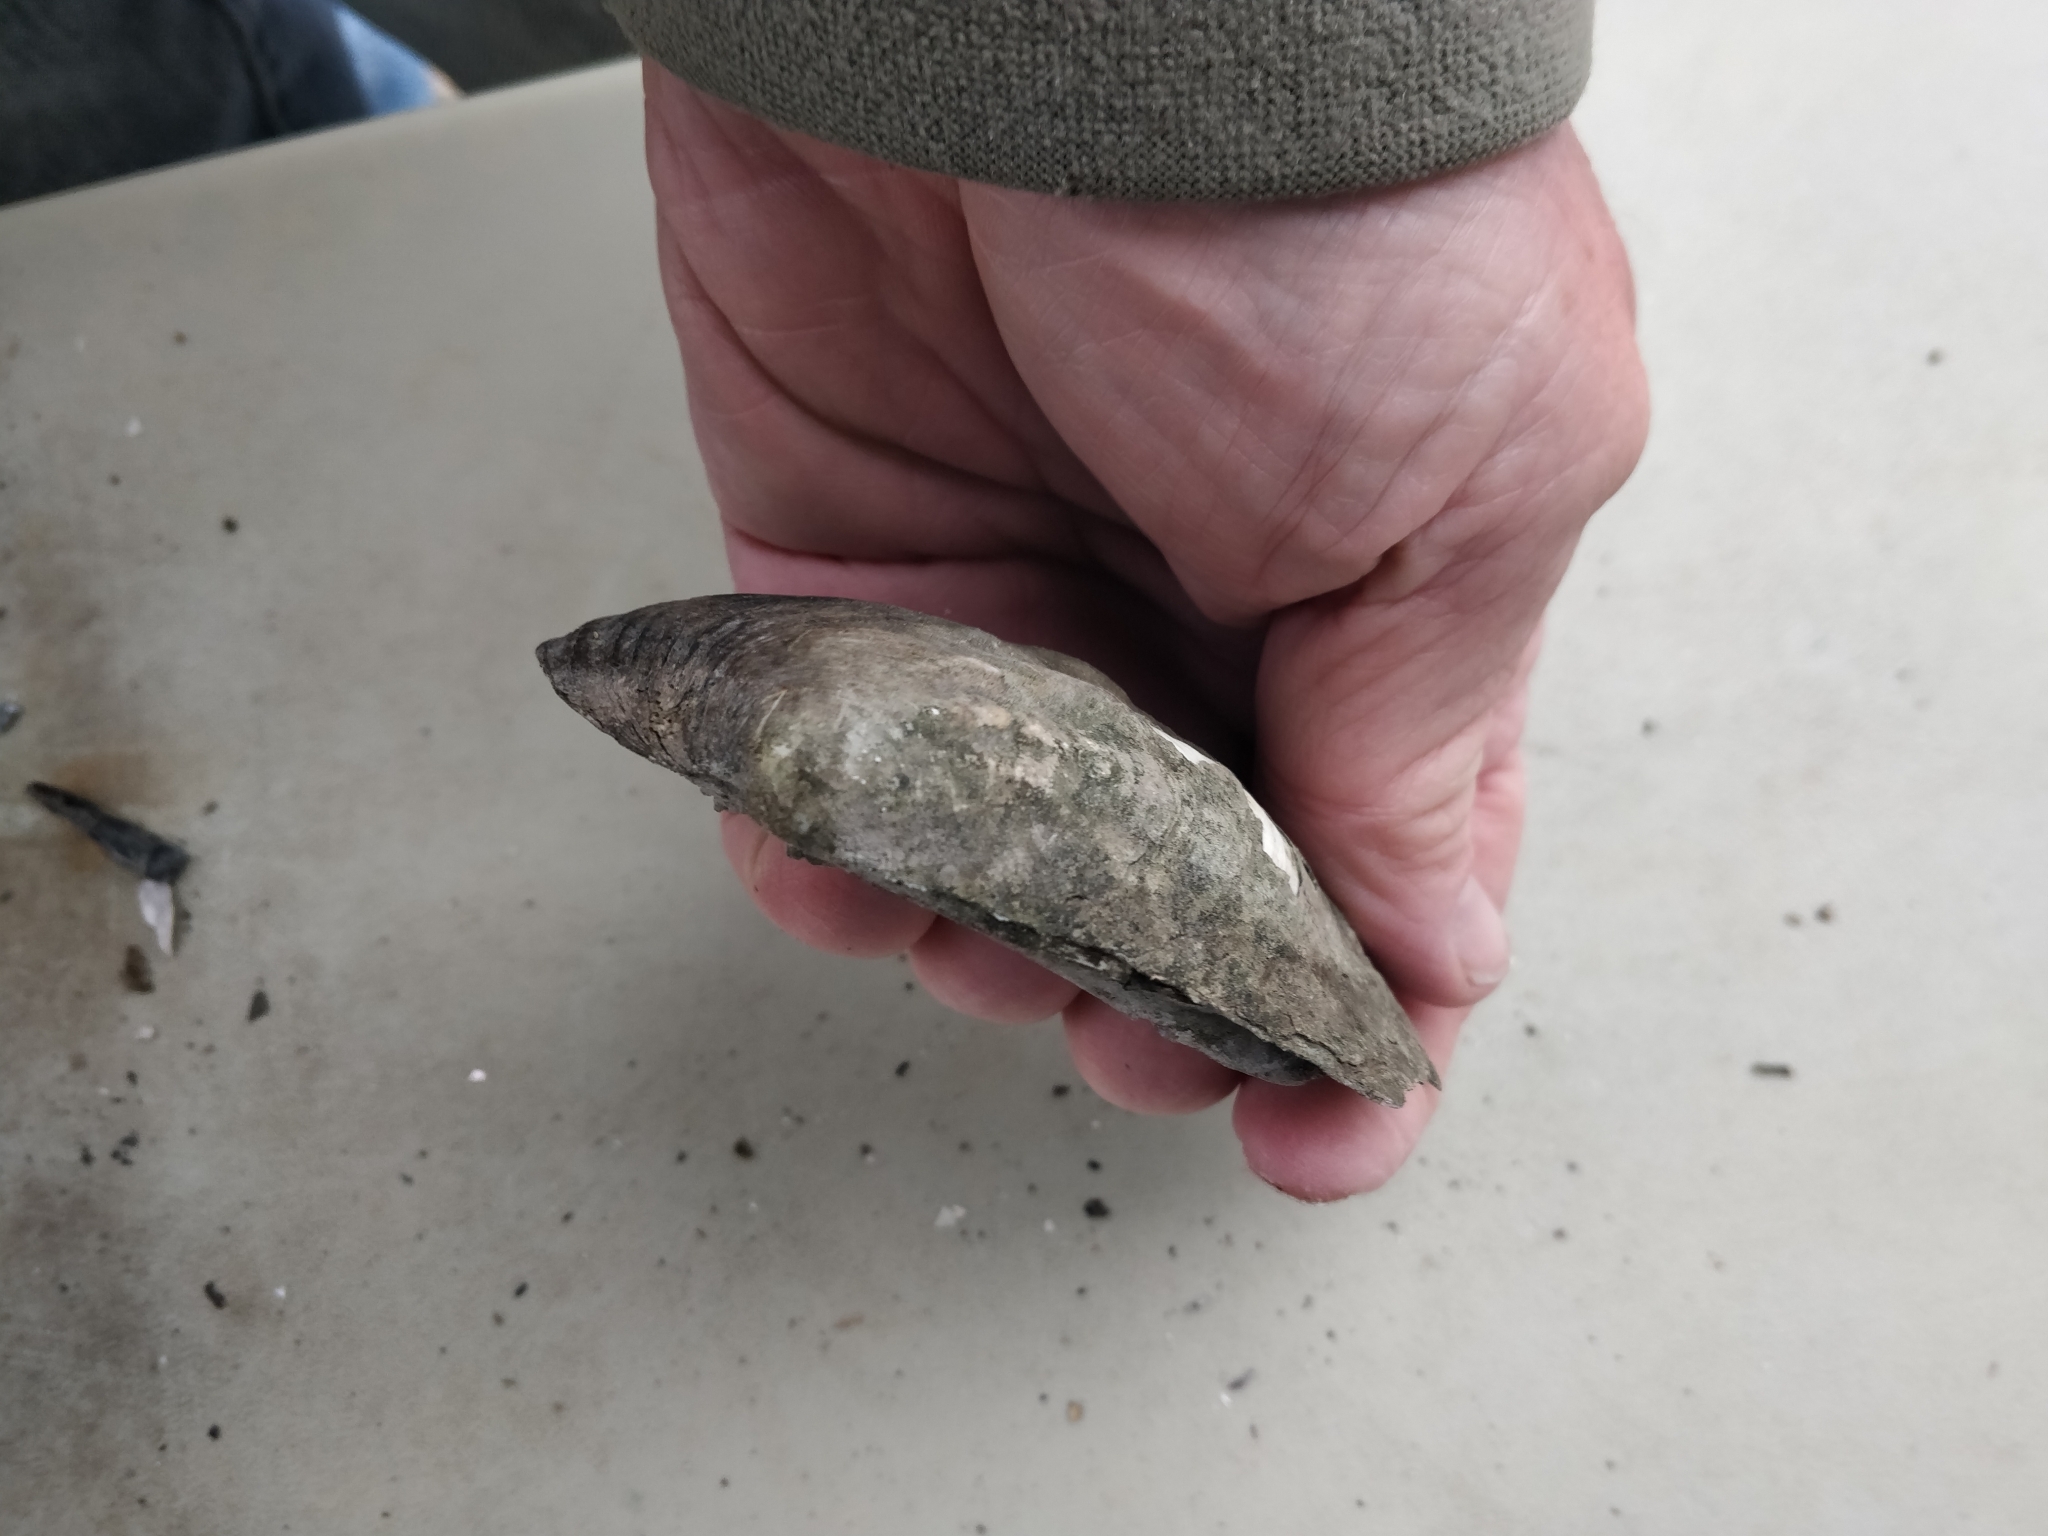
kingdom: Animalia
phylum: Mollusca
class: Bivalvia
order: Unionida
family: Unionidae
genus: Amblema
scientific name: Amblema plicata
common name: Threeridge
